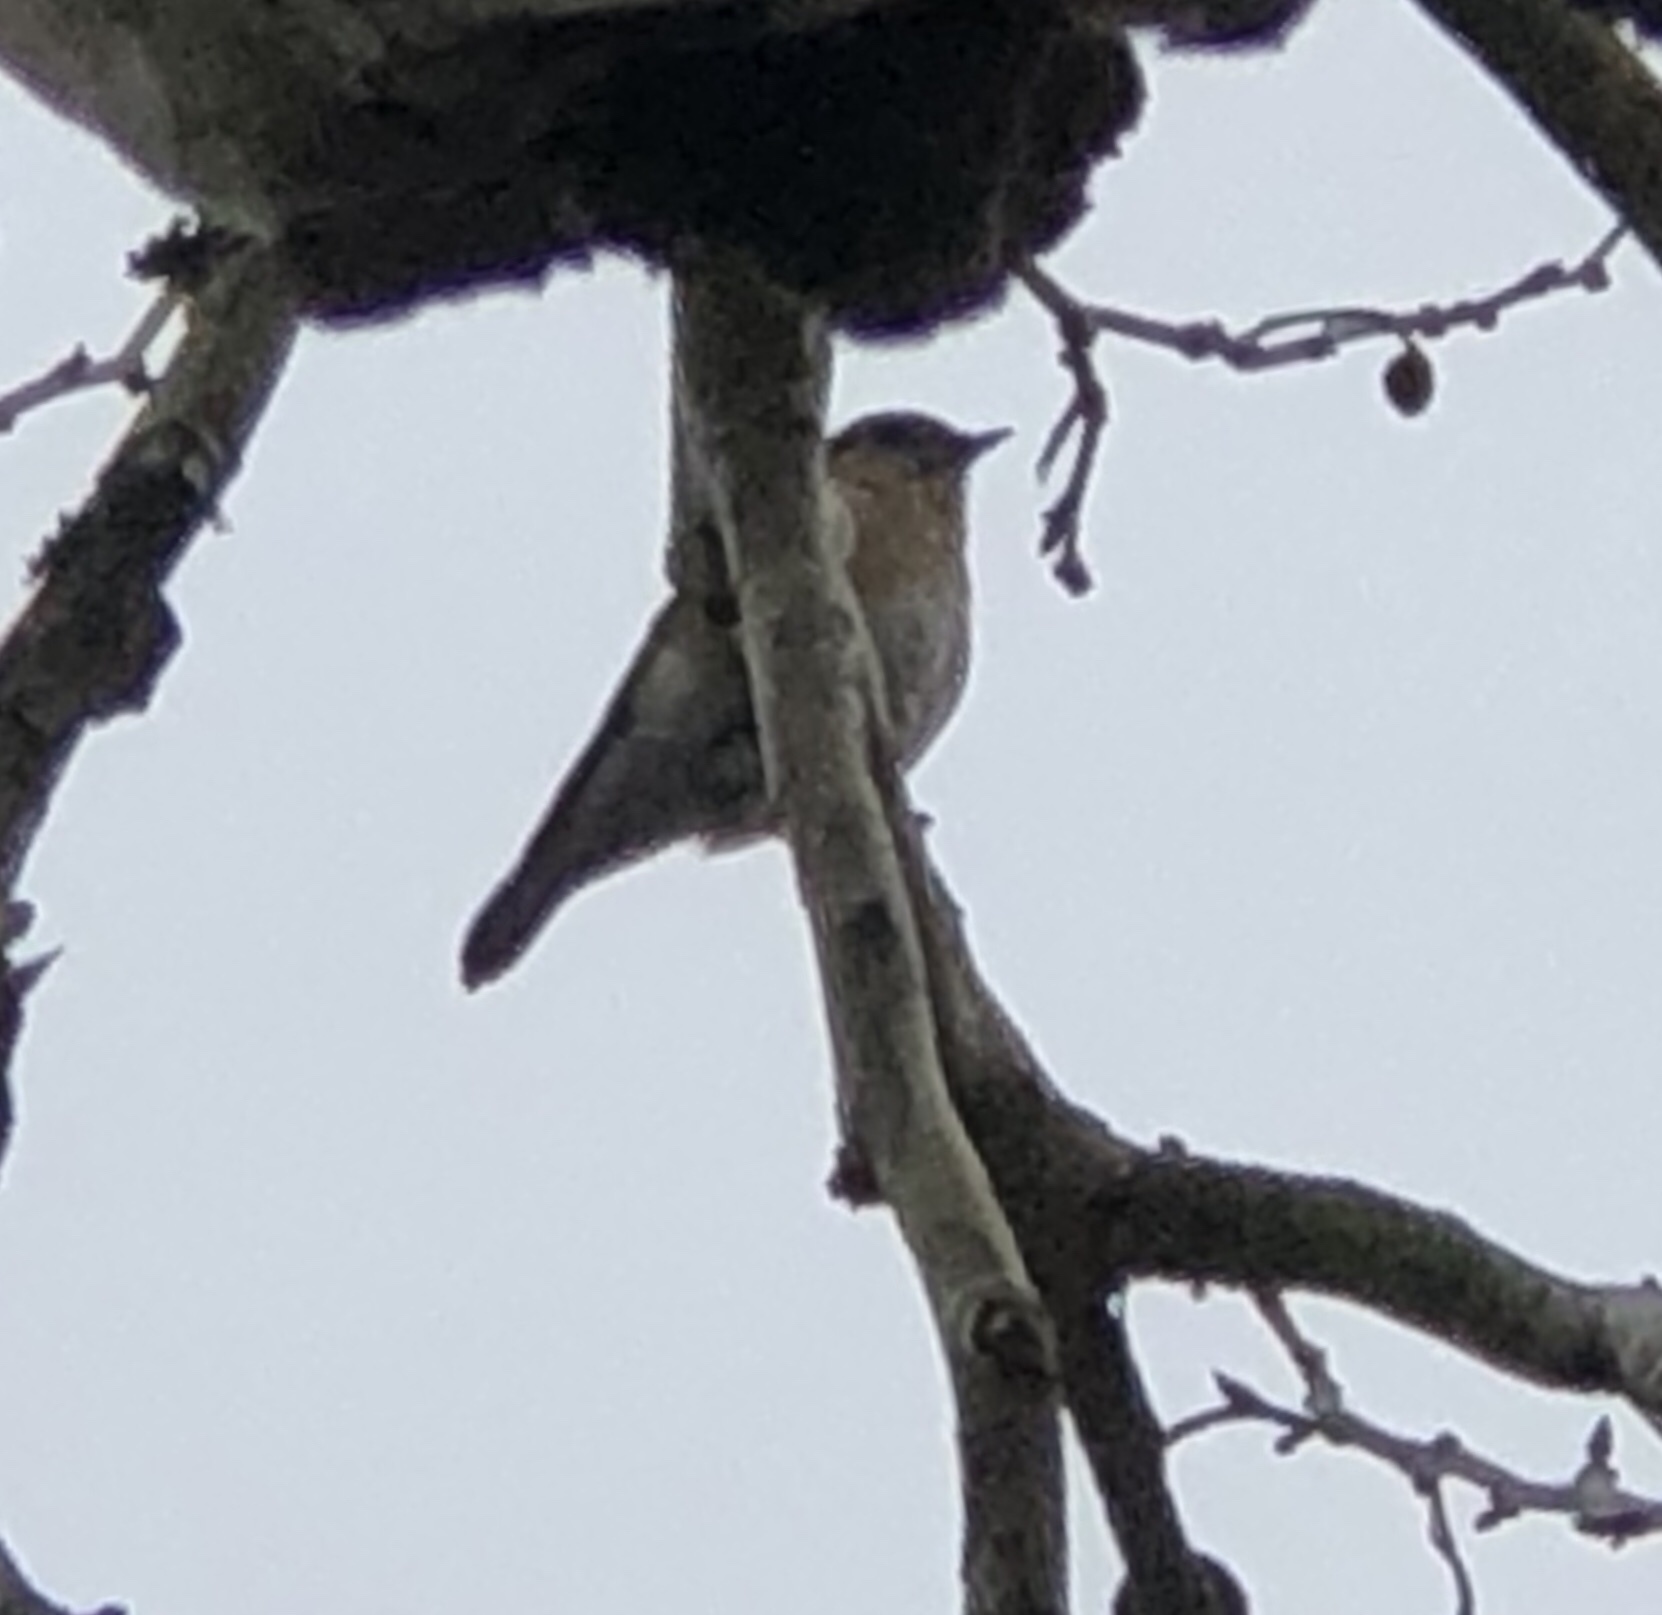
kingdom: Animalia
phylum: Chordata
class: Aves
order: Passeriformes
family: Turdidae
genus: Sialia
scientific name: Sialia sialis
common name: Eastern bluebird
